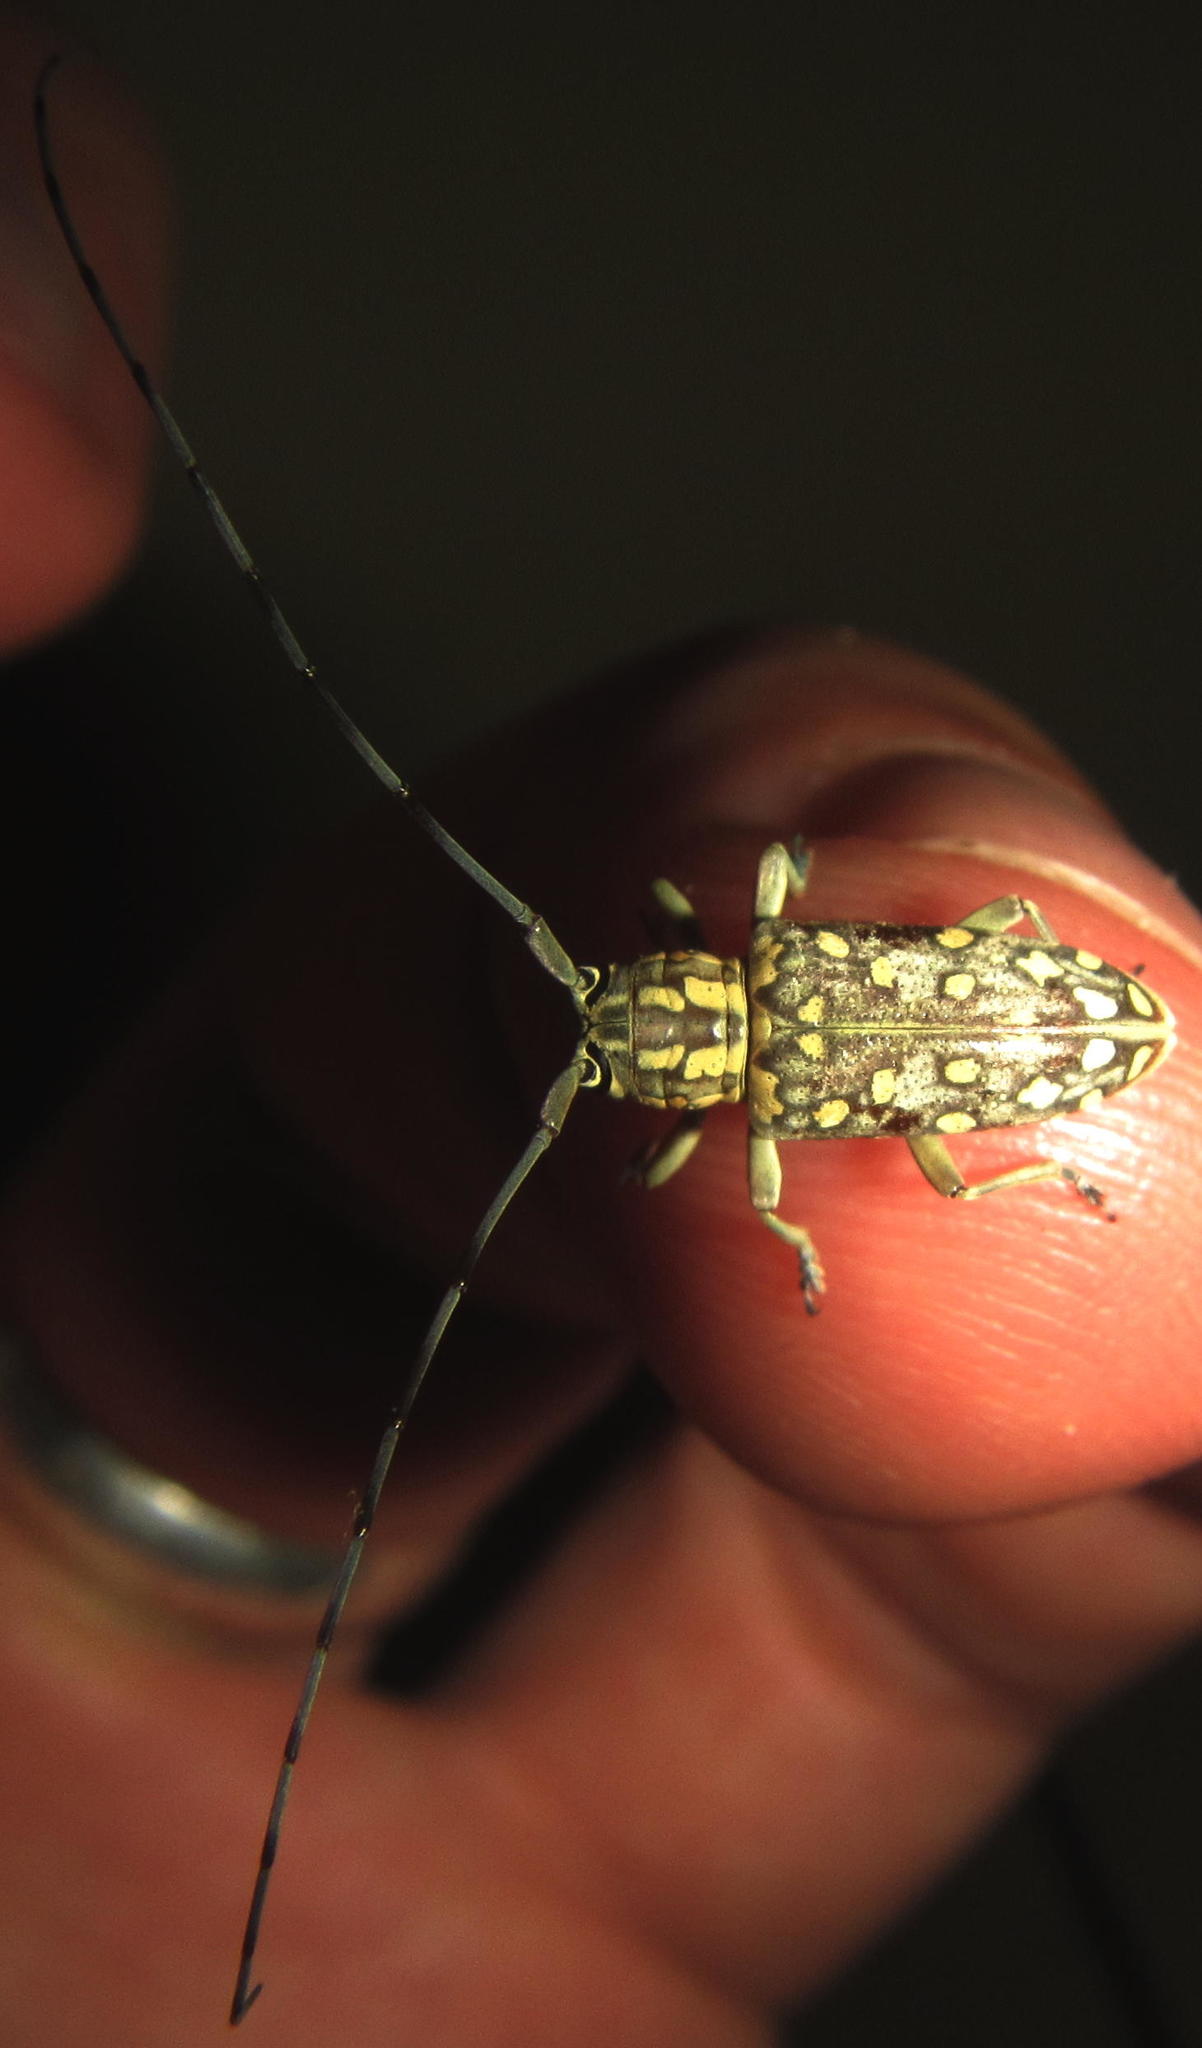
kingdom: Animalia
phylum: Arthropoda
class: Insecta
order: Coleoptera
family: Cerambycidae
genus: Prosopocera
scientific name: Prosopocera sofala
